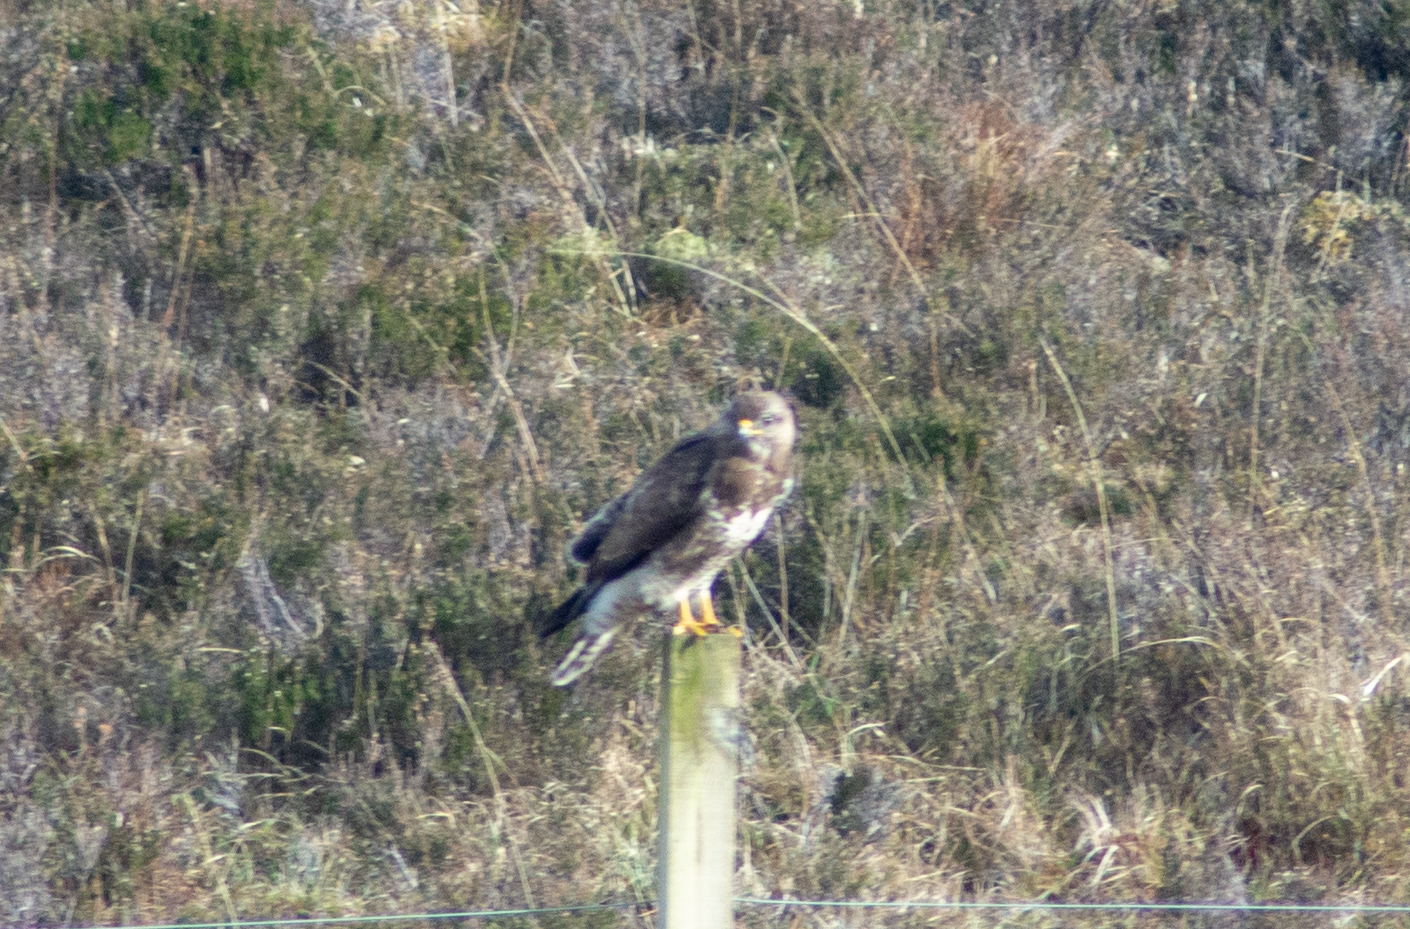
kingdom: Animalia
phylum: Chordata
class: Aves
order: Accipitriformes
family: Accipitridae
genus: Buteo
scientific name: Buteo buteo
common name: Common buzzard
